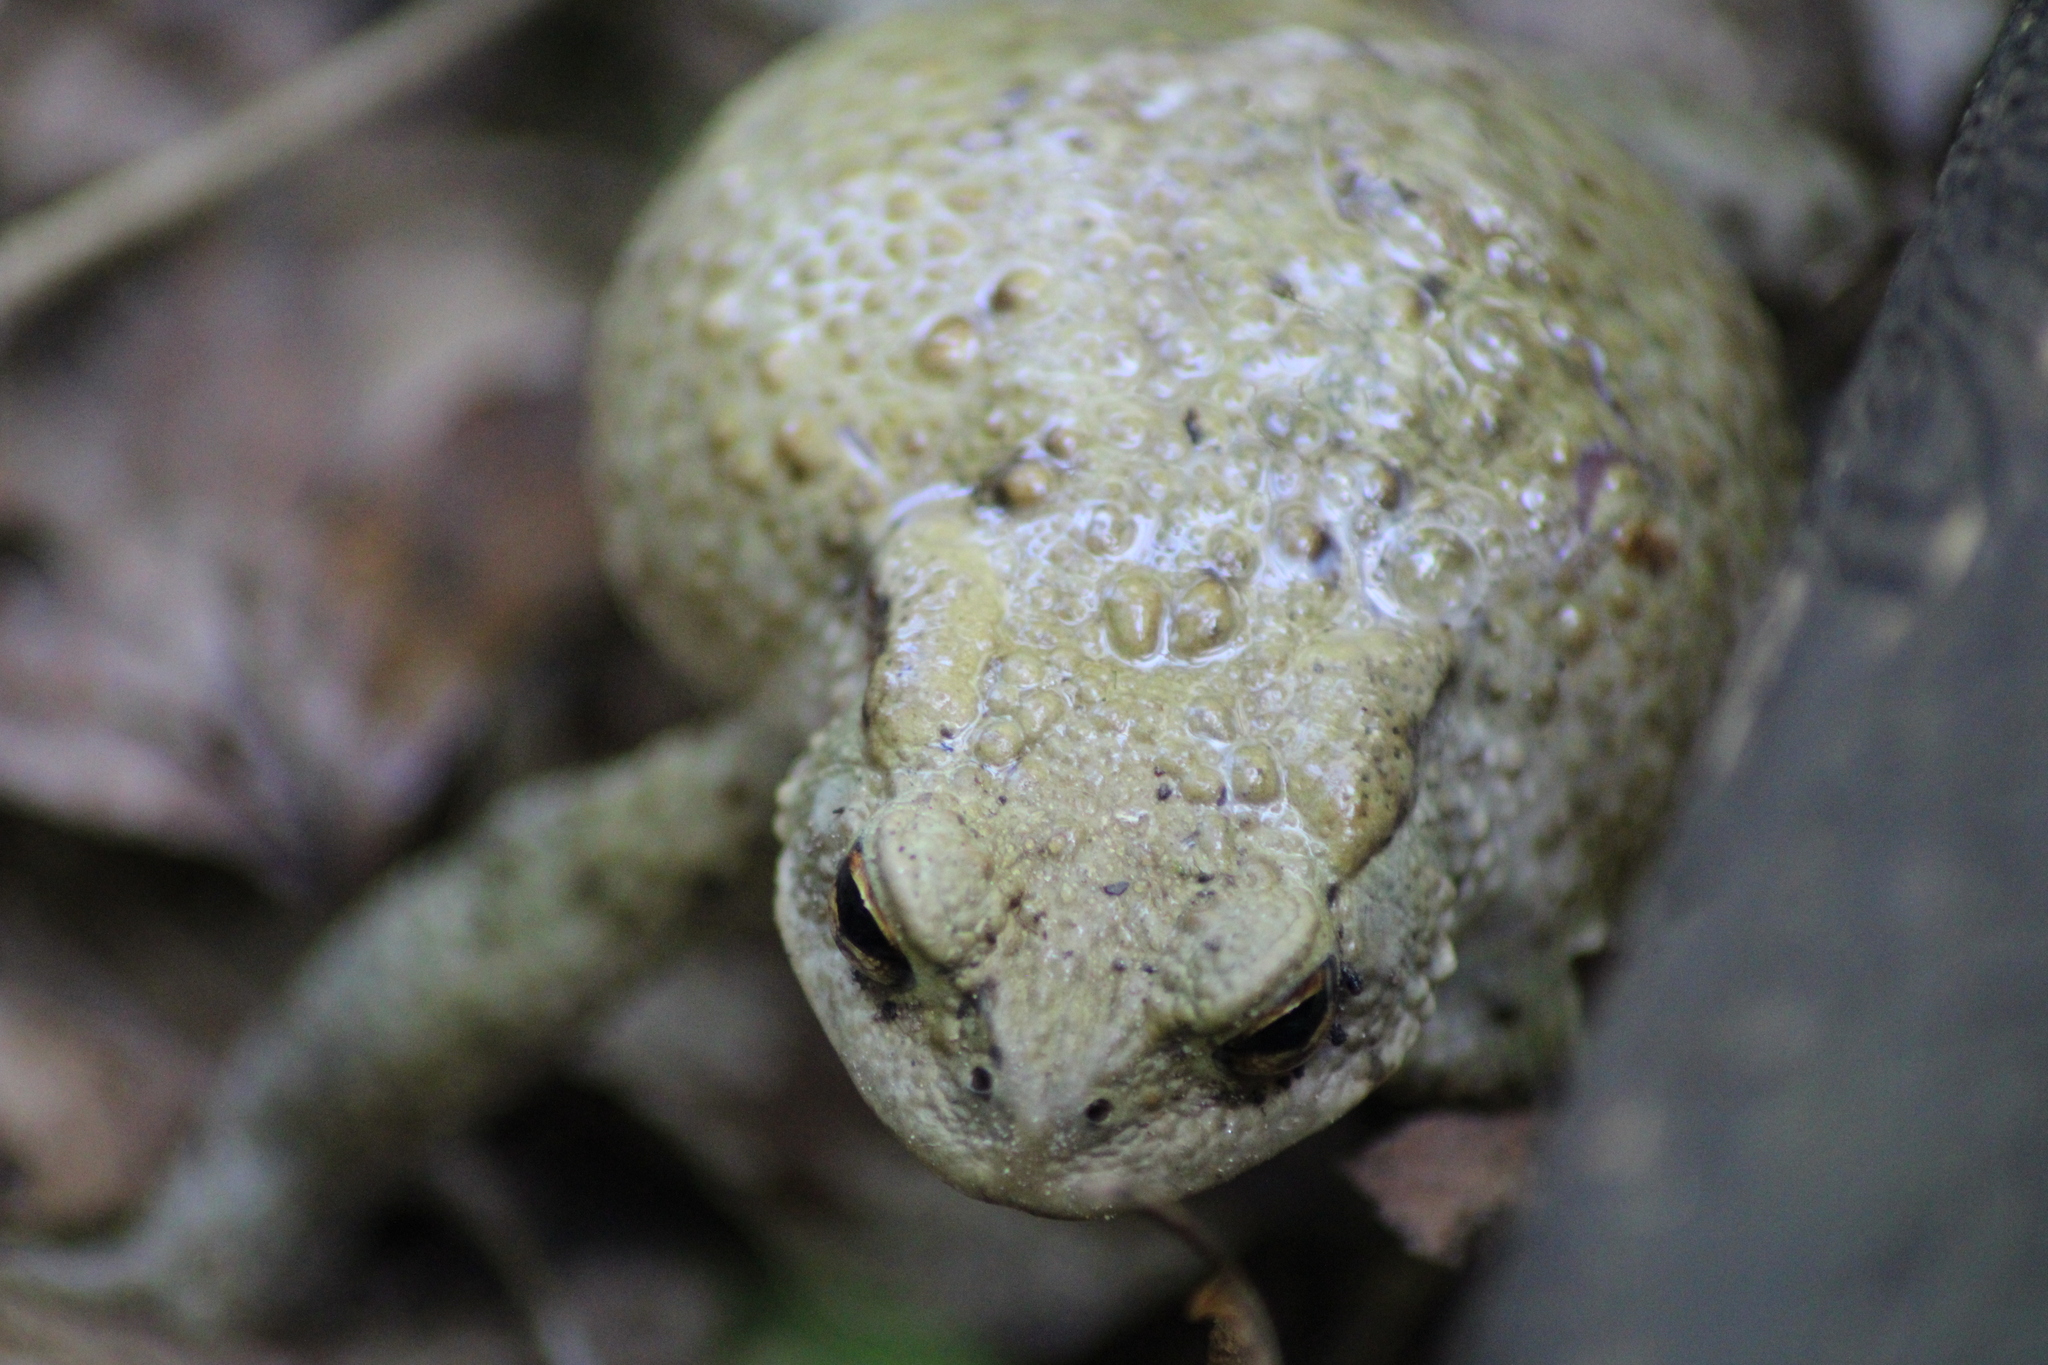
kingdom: Animalia
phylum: Chordata
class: Amphibia
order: Anura
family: Bufonidae
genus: Bufo
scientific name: Bufo bufo
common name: Common toad
